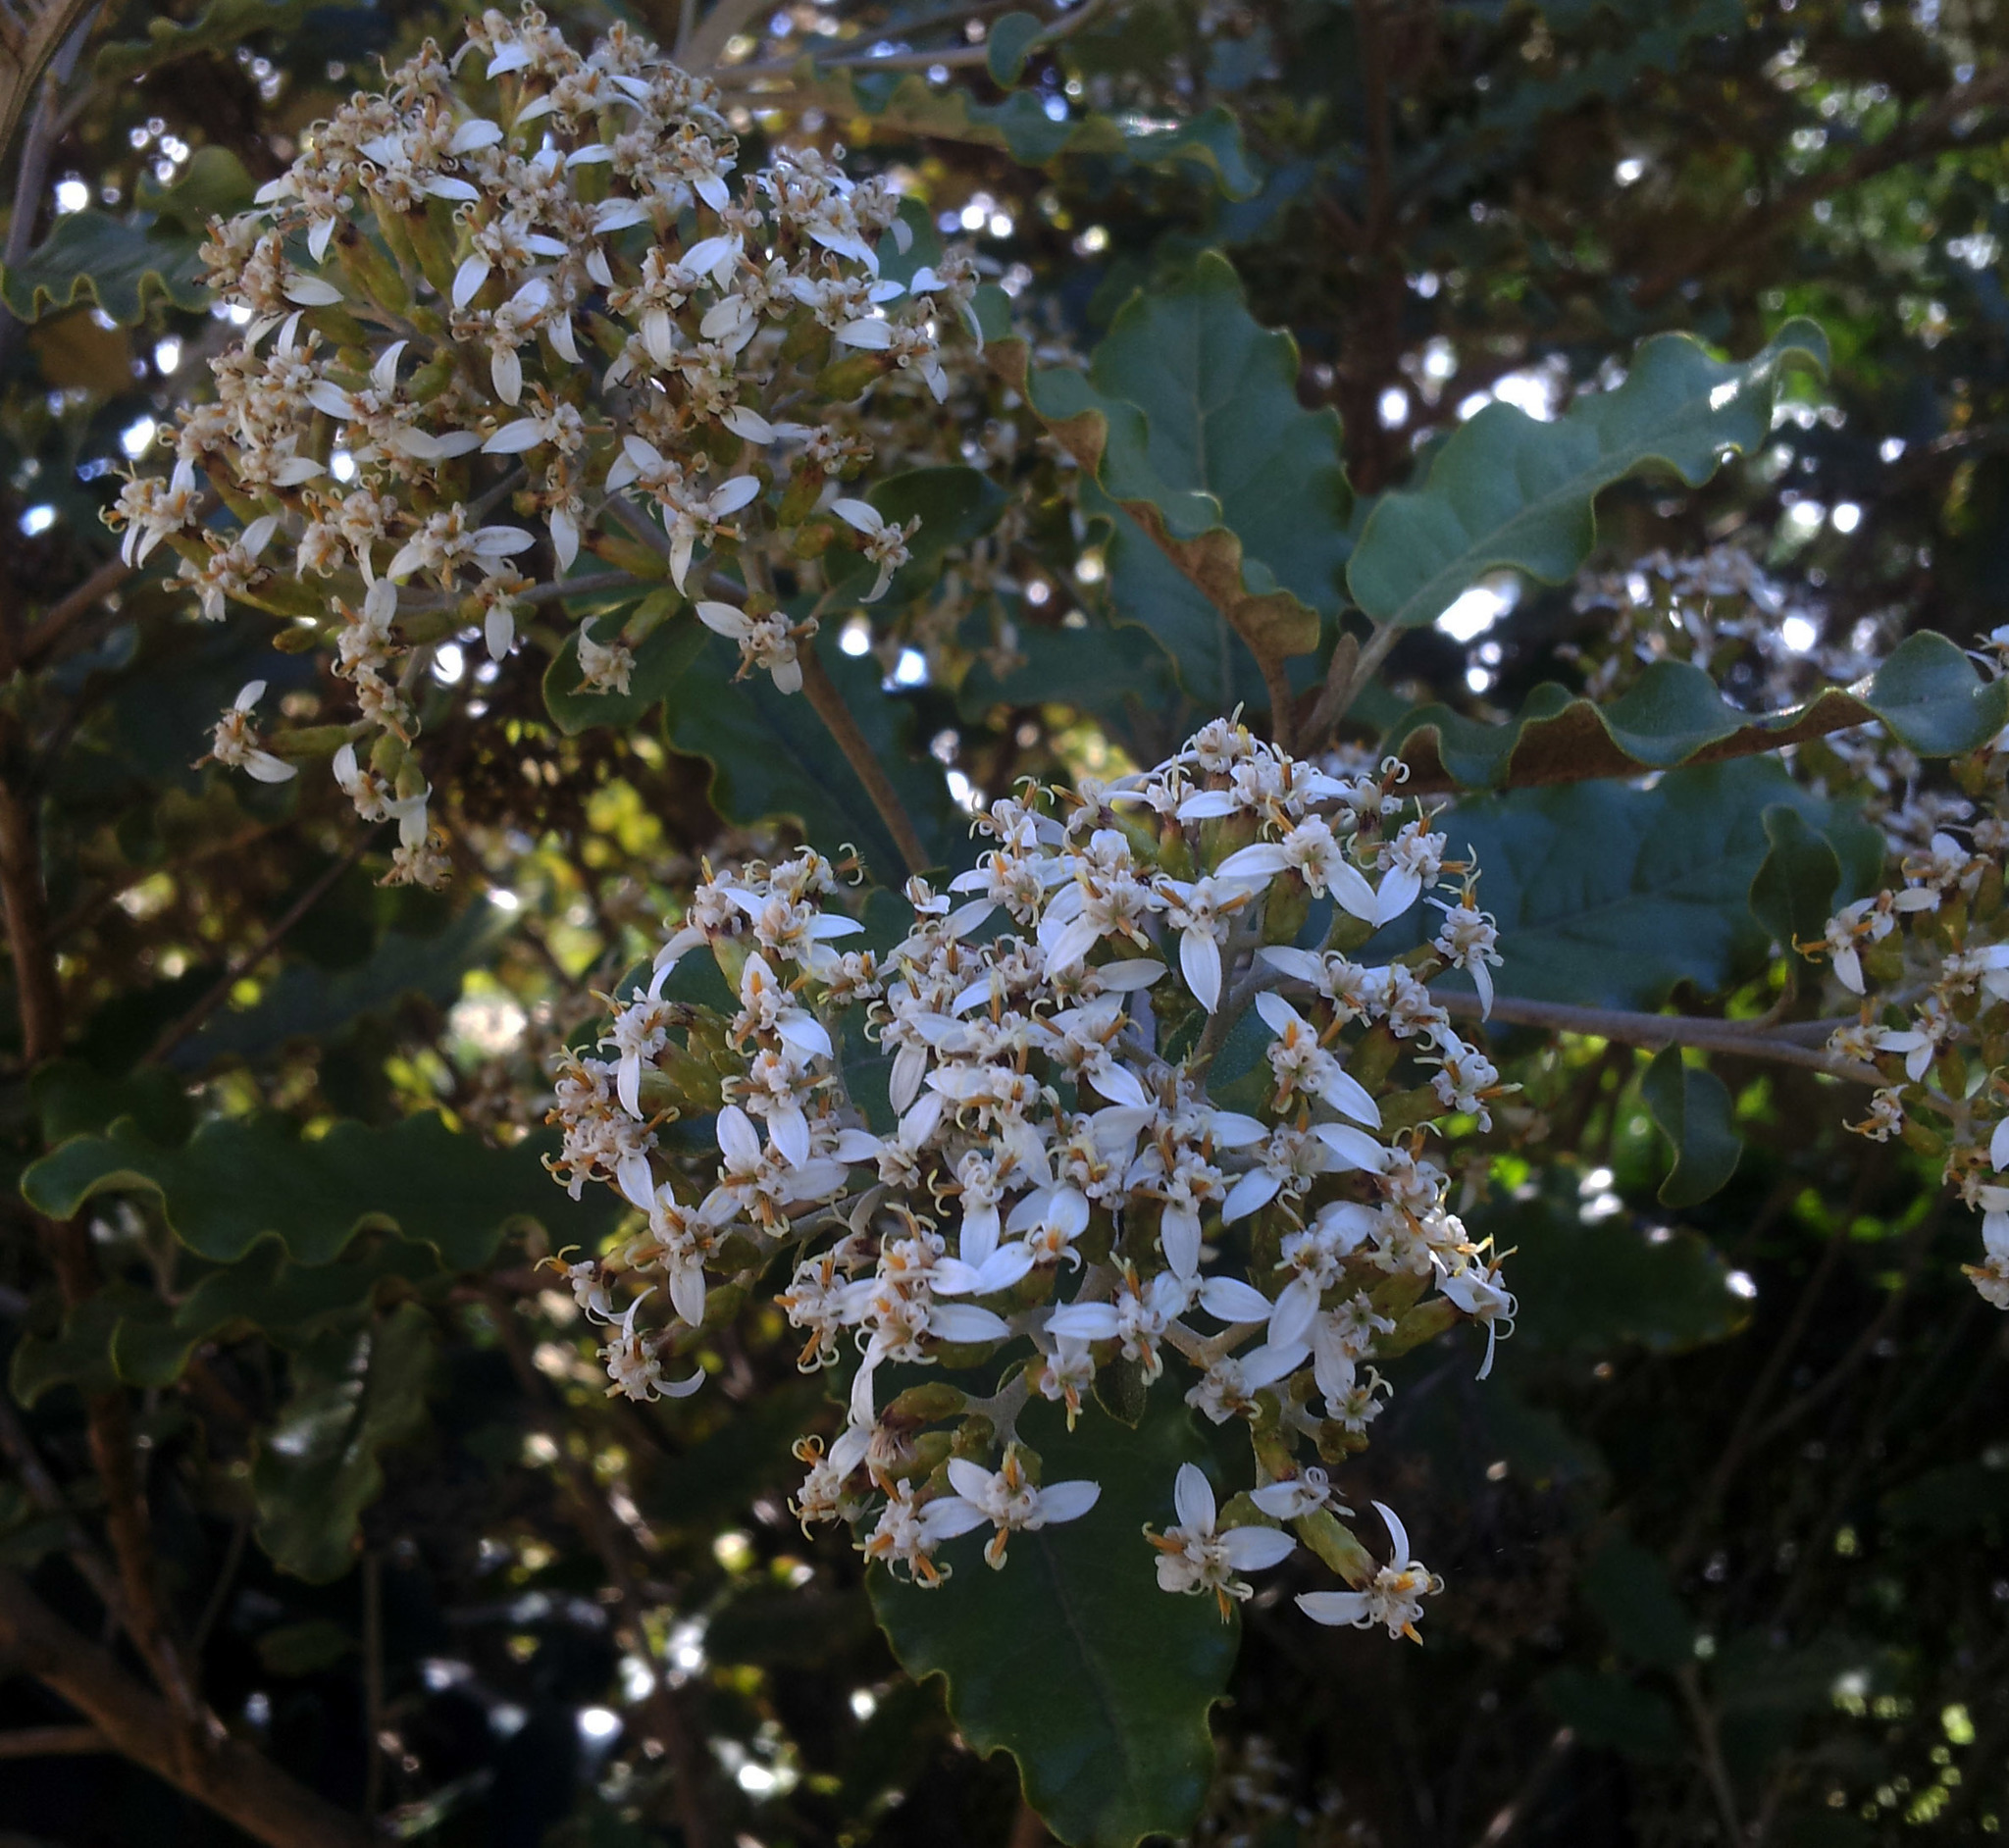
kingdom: Plantae
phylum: Tracheophyta
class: Magnoliopsida
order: Asterales
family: Asteraceae
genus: Olearia
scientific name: Olearia angulata
